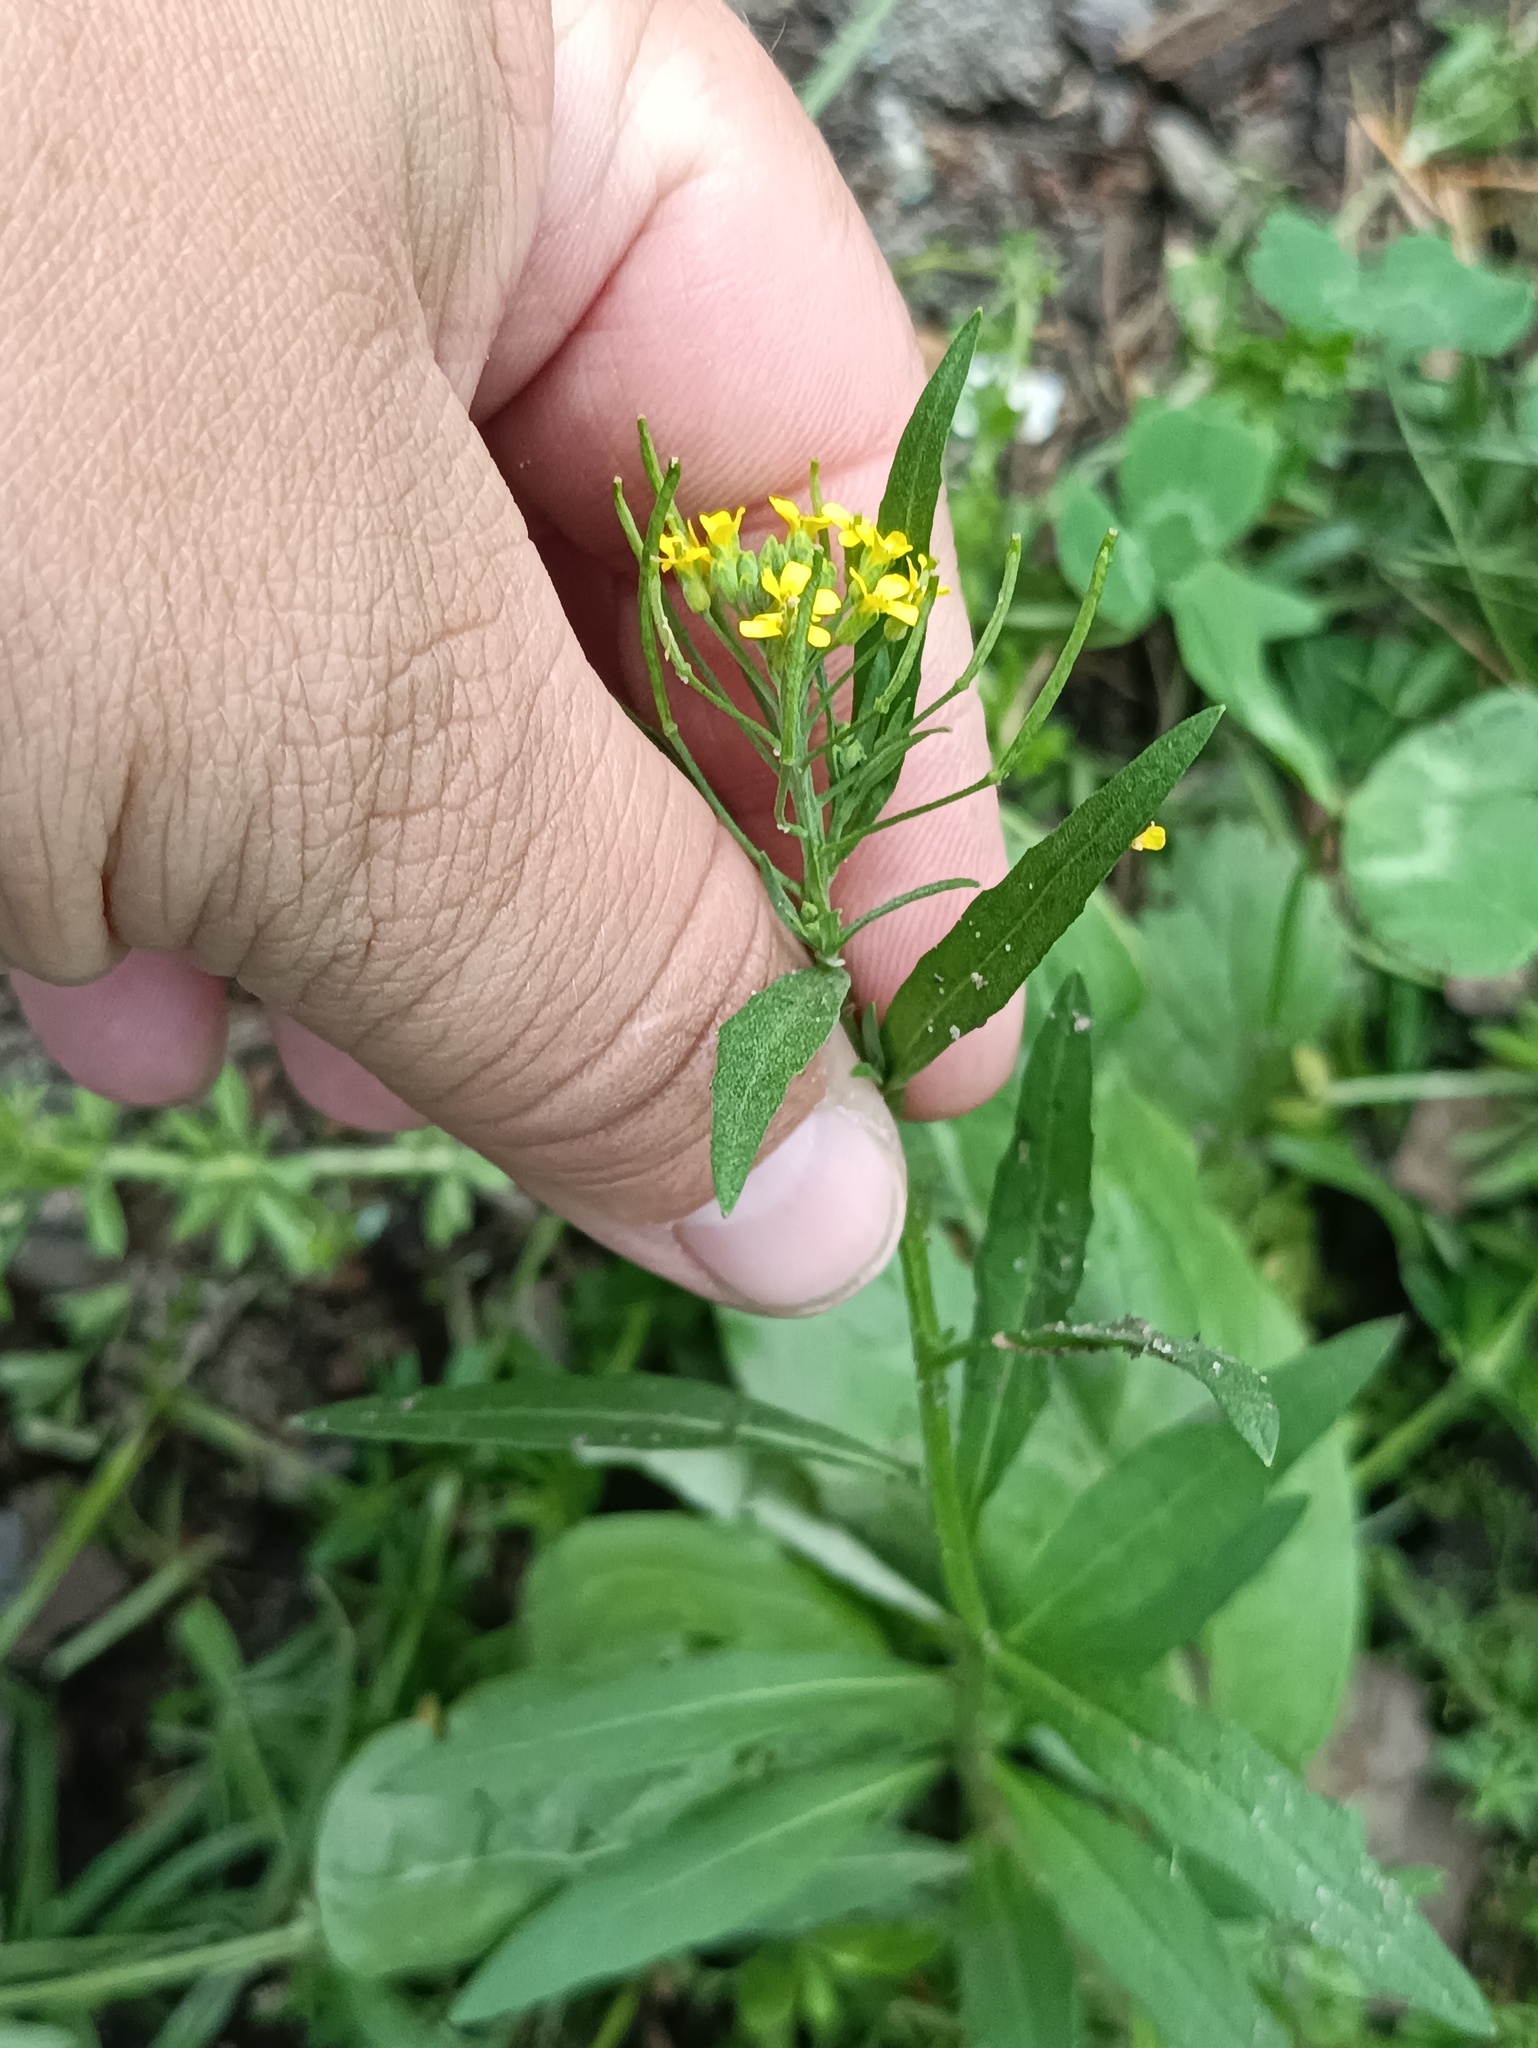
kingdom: Plantae
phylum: Tracheophyta
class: Magnoliopsida
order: Brassicales
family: Brassicaceae
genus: Erysimum
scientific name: Erysimum cheiranthoides
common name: Treacle mustard
